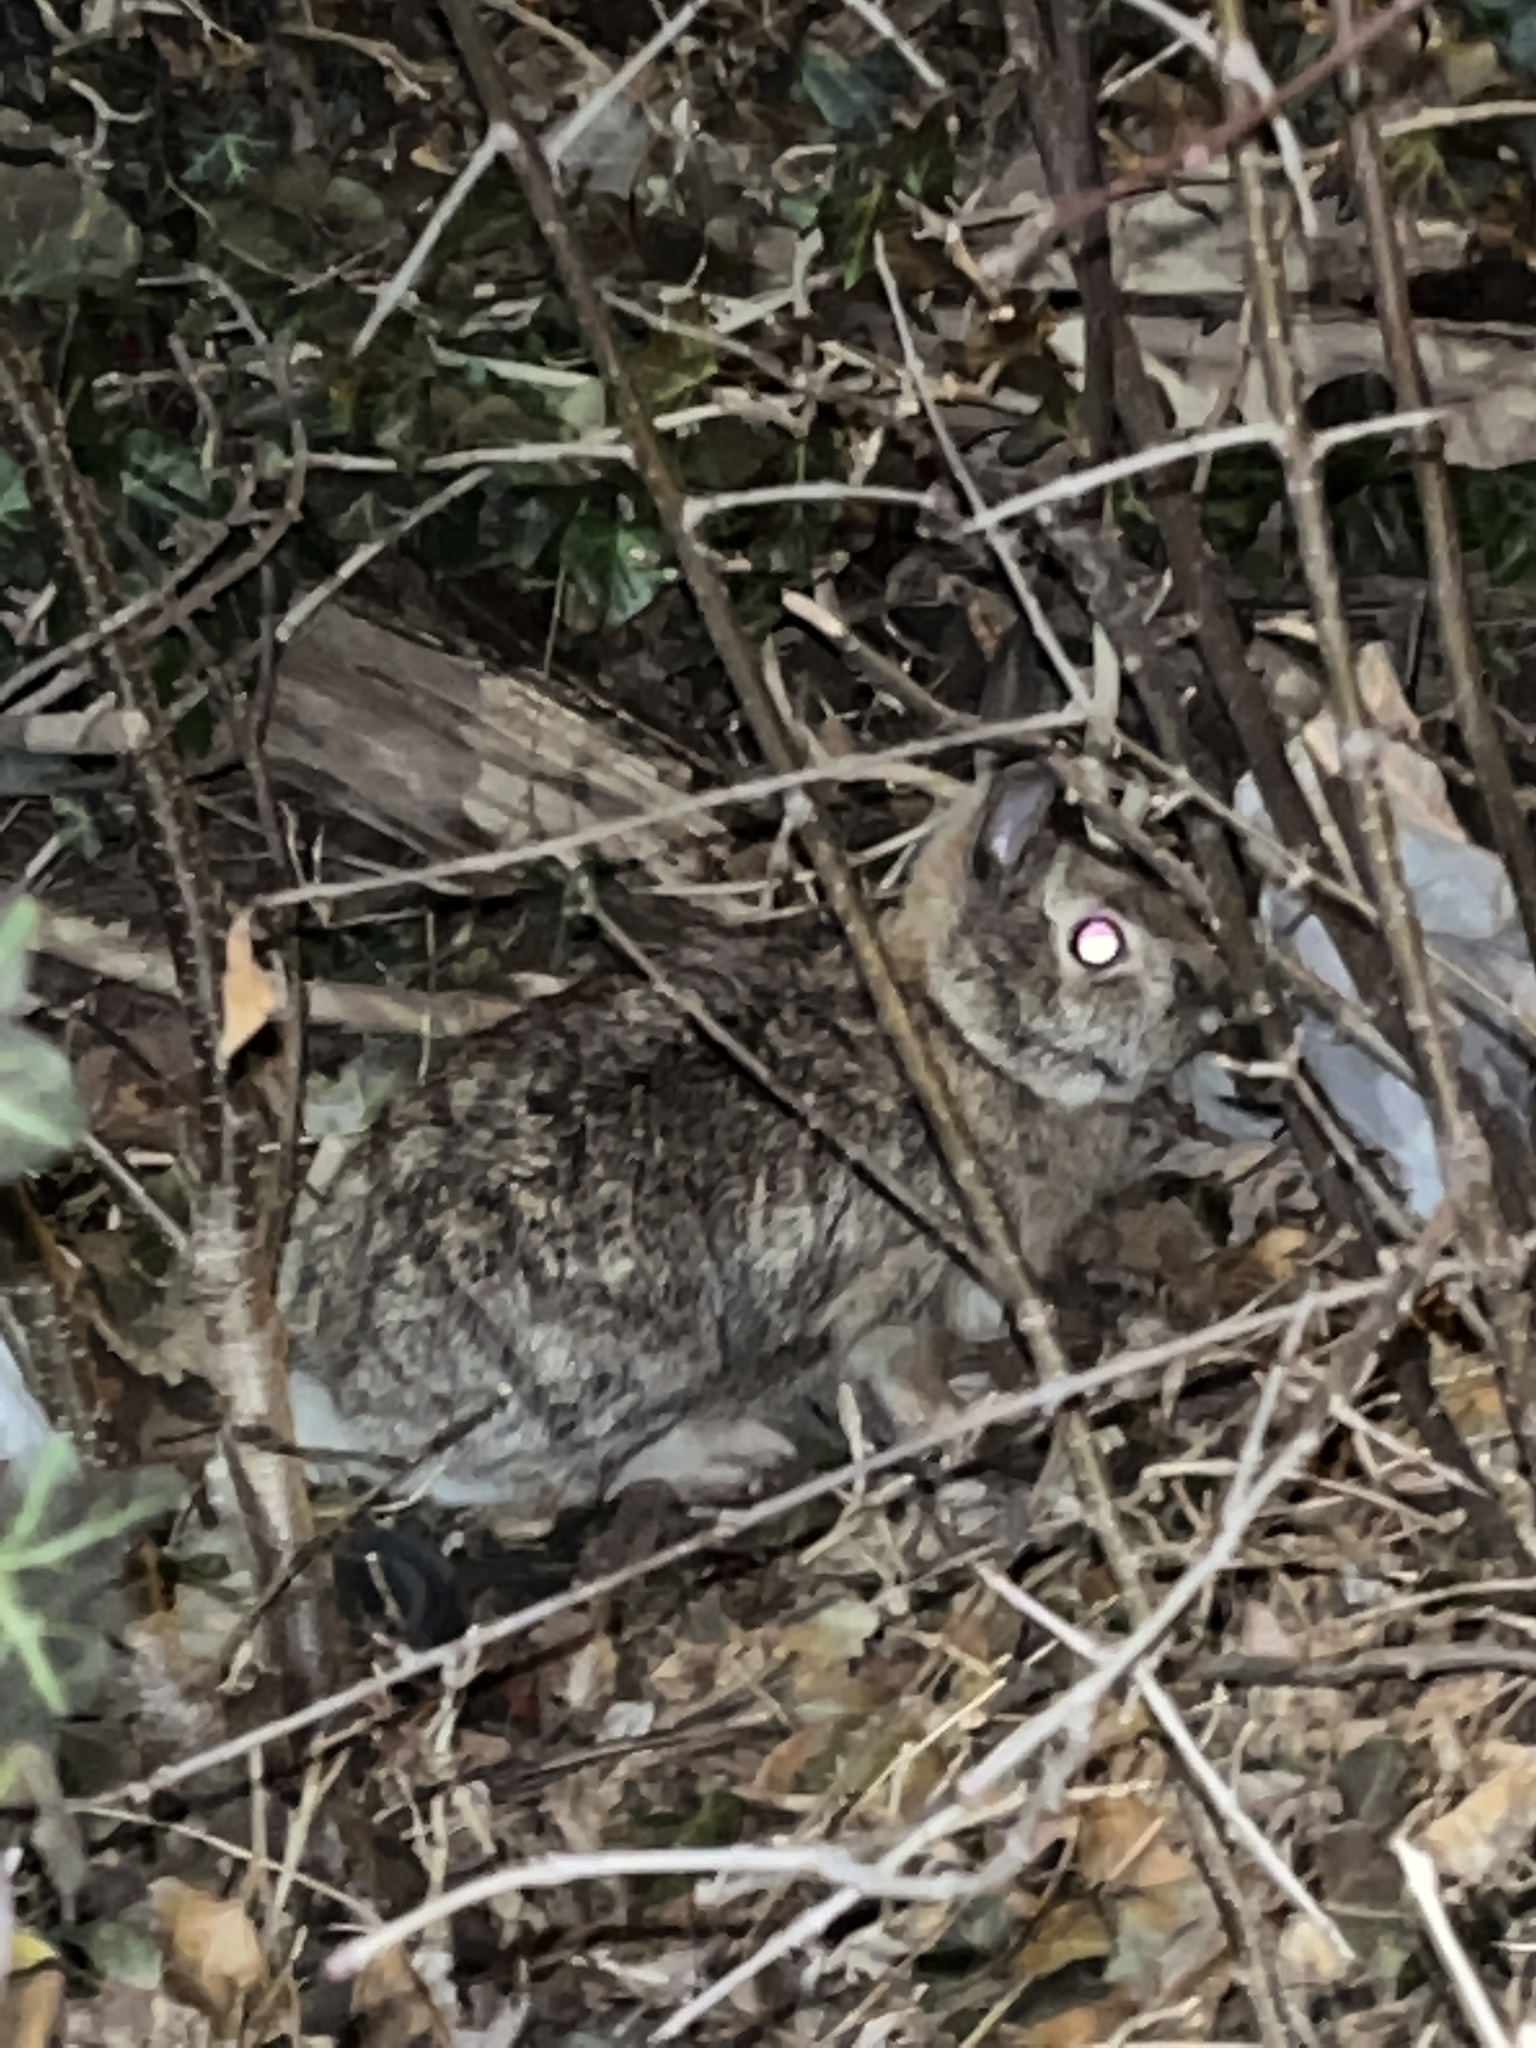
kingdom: Animalia
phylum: Chordata
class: Mammalia
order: Lagomorpha
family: Leporidae
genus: Sylvilagus
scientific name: Sylvilagus floridanus
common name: Eastern cottontail
